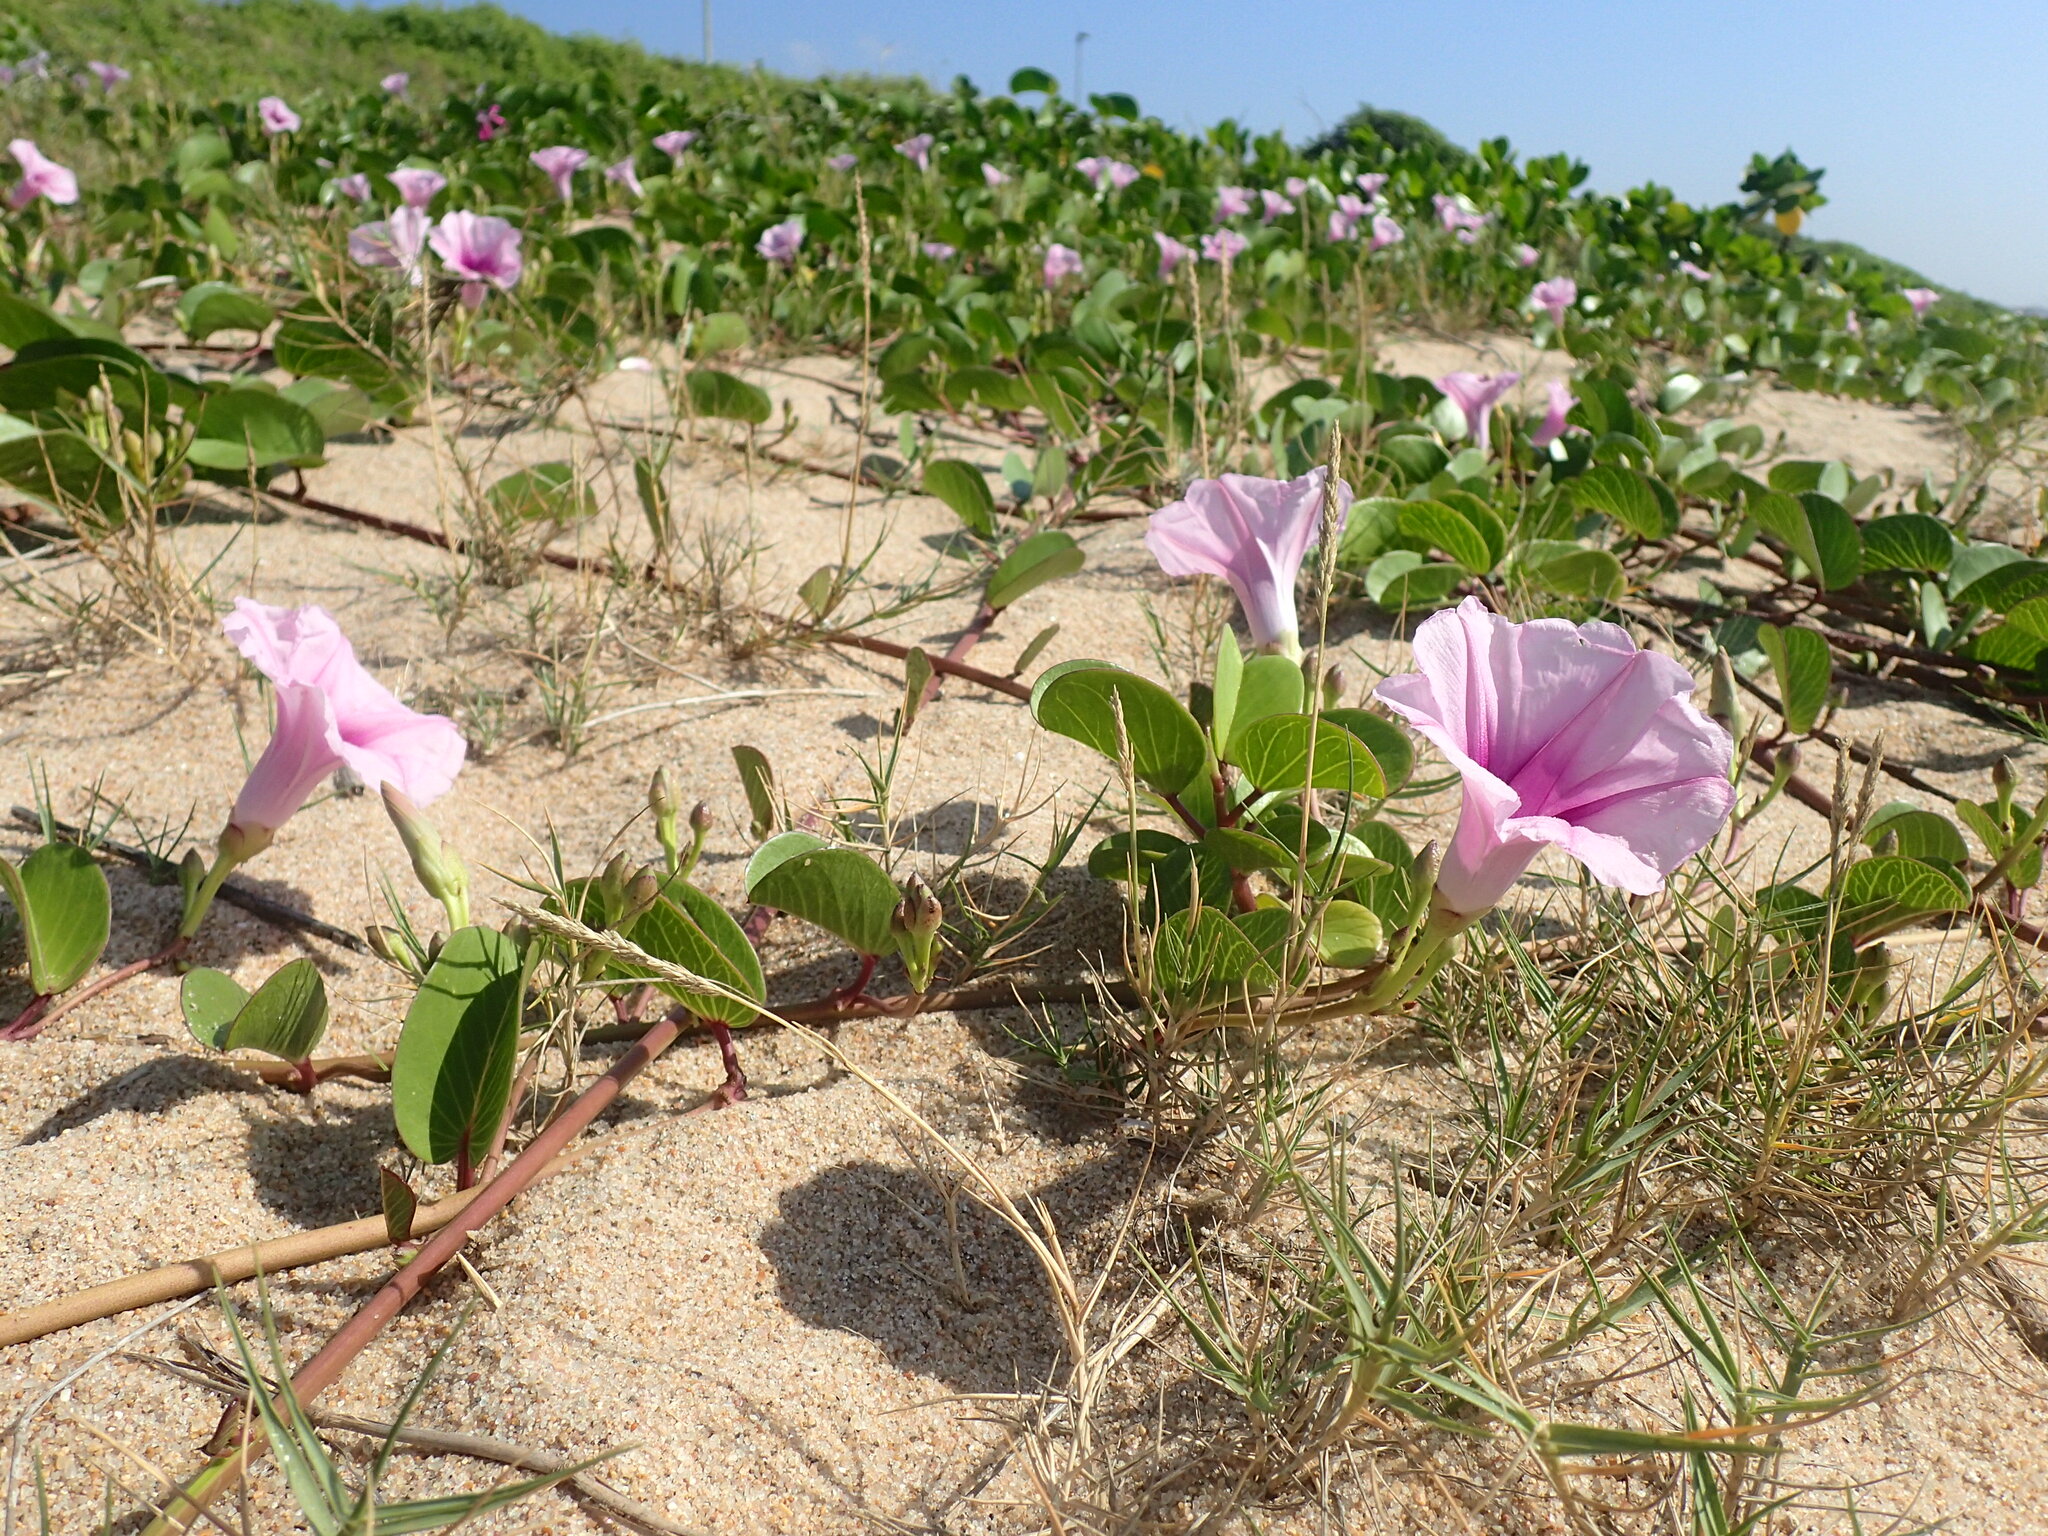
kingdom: Plantae
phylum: Tracheophyta
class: Magnoliopsida
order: Solanales
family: Convolvulaceae
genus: Ipomoea
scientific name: Ipomoea pes-caprae
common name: Beach morning glory
